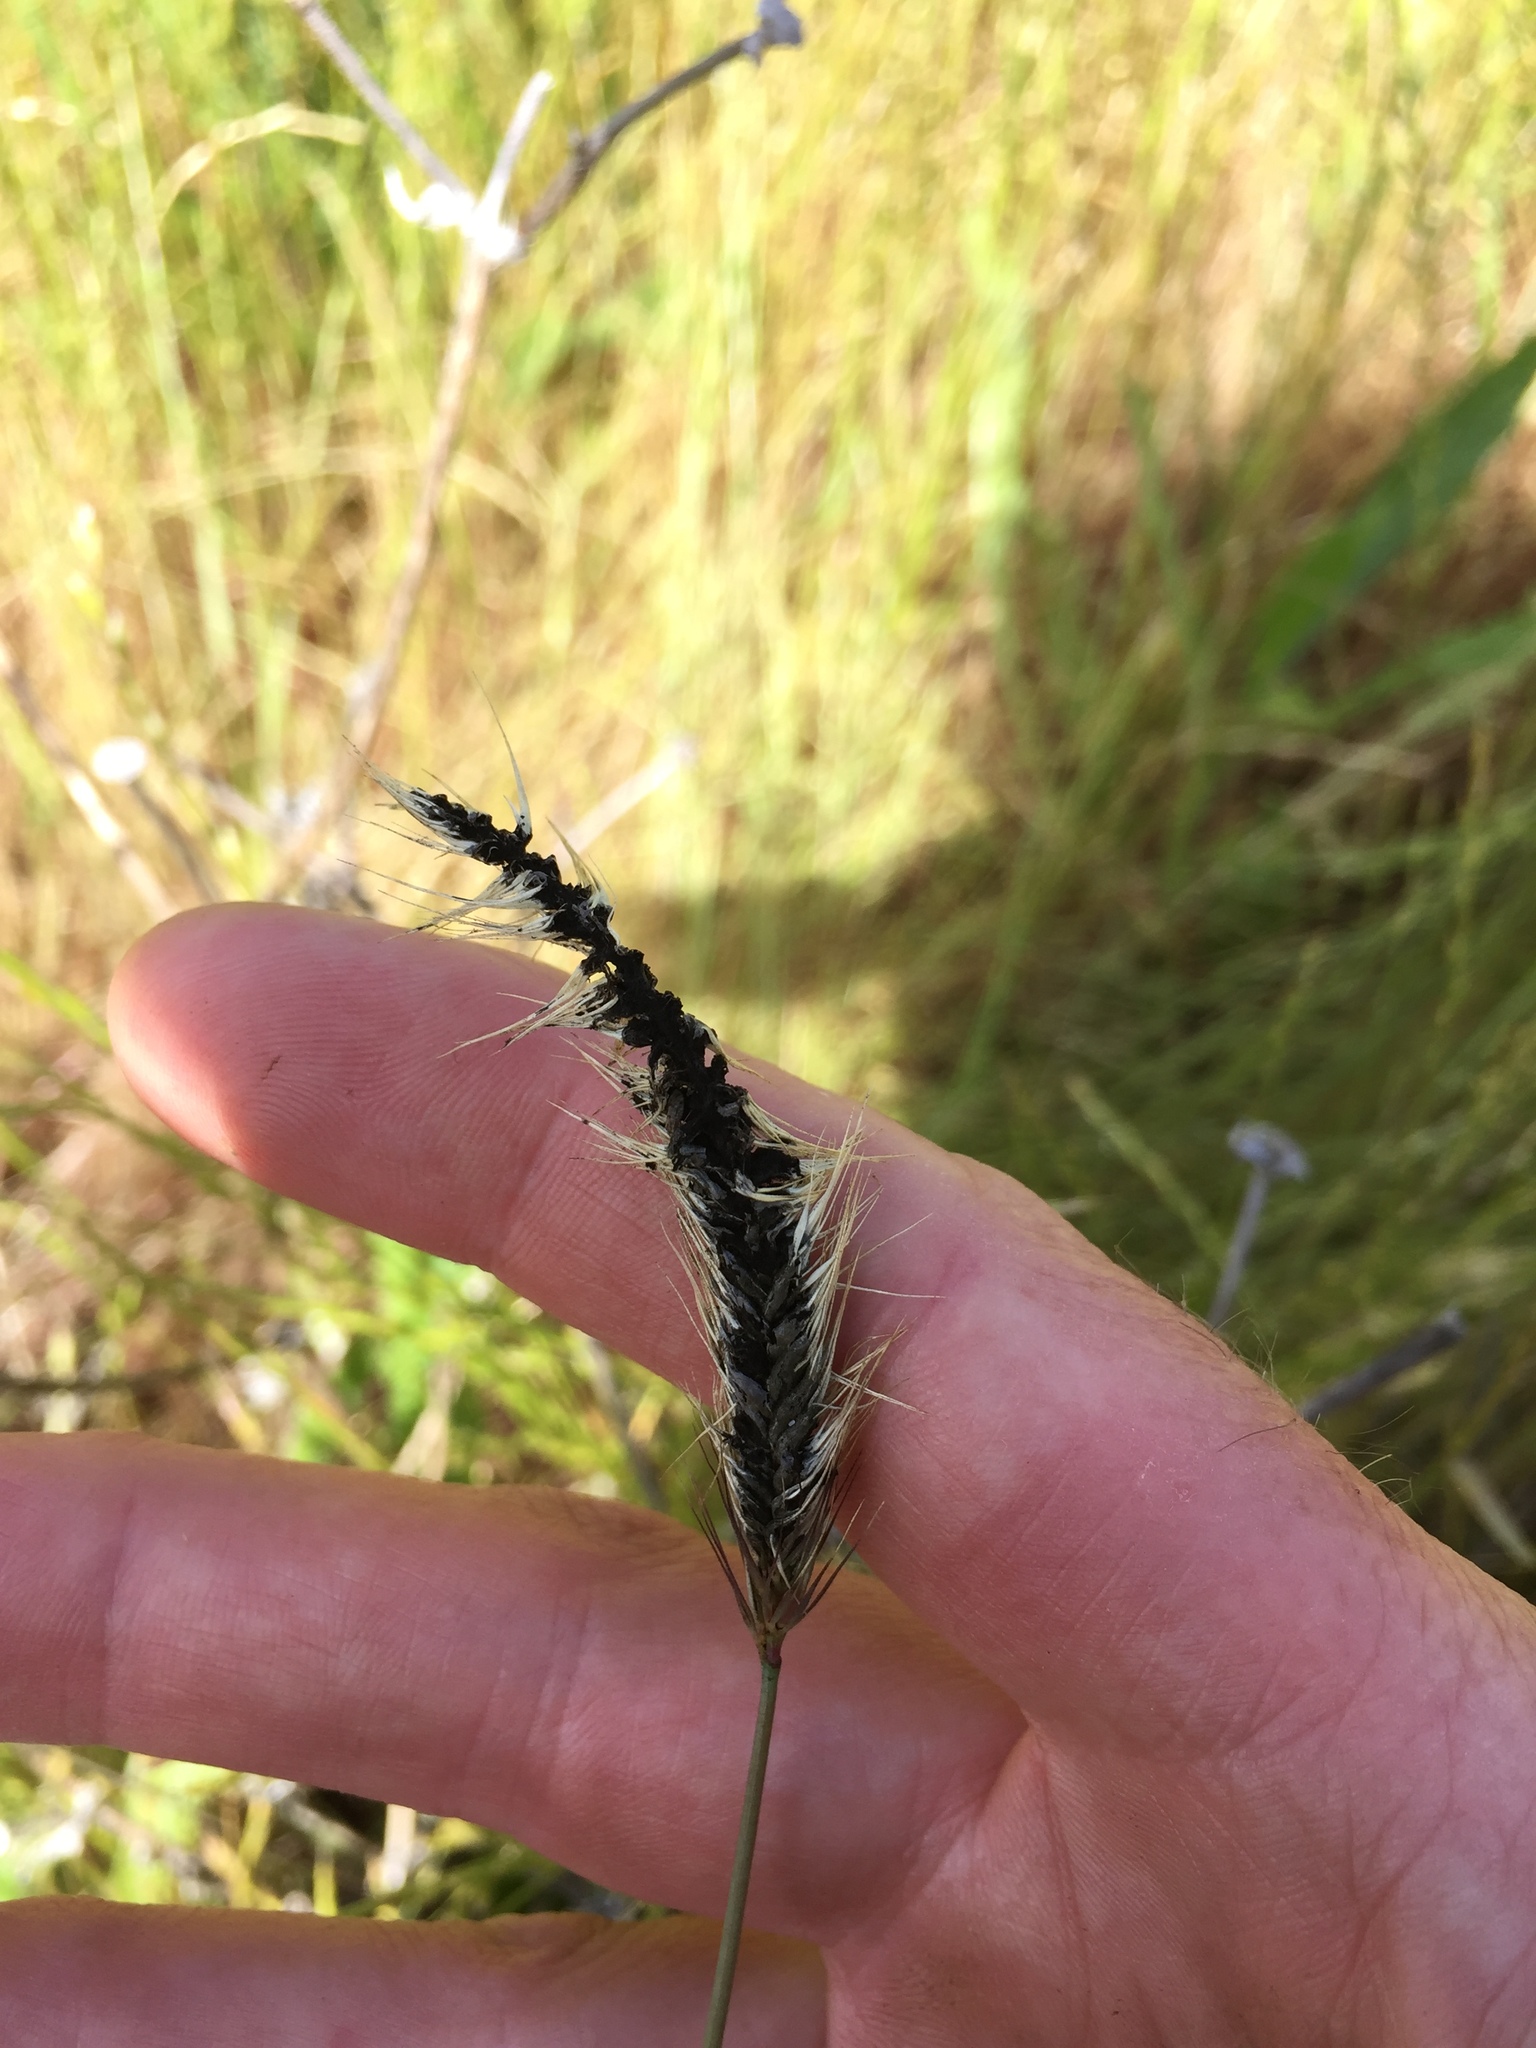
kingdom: Fungi
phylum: Basidiomycota
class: Ustilaginomycetes
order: Ustilaginales
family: Ustilaginaceae
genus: Ustilago
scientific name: Ustilago nuda
